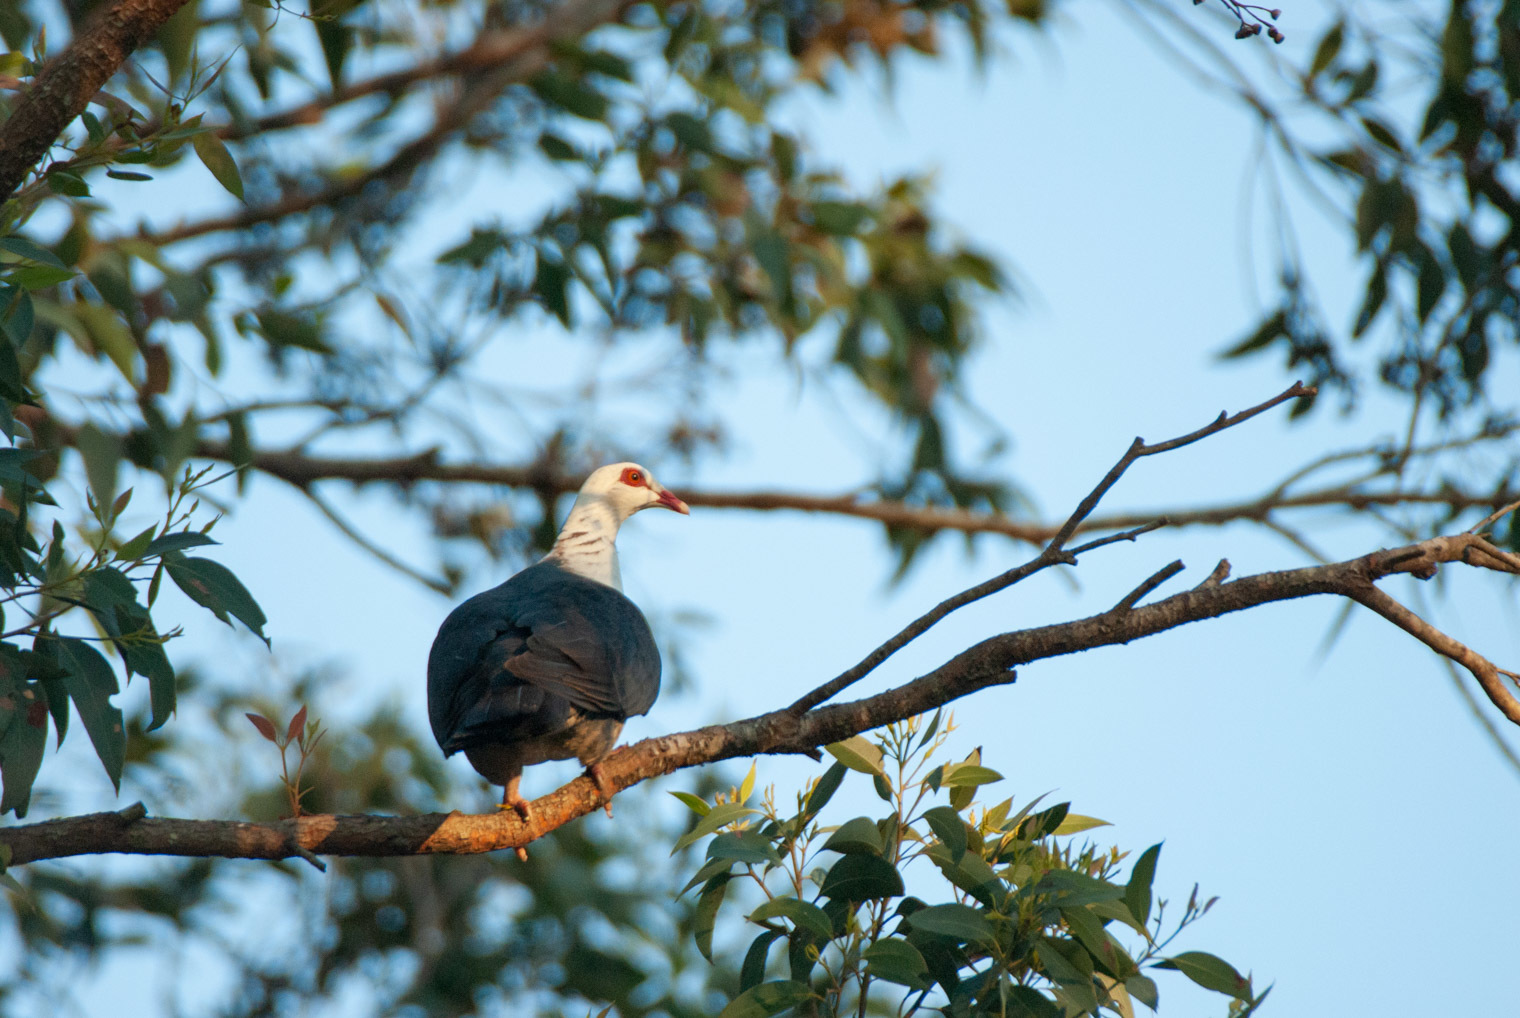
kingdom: Animalia
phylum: Chordata
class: Aves
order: Columbiformes
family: Columbidae
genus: Columba
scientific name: Columba leucomela
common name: White-headed pigeon
